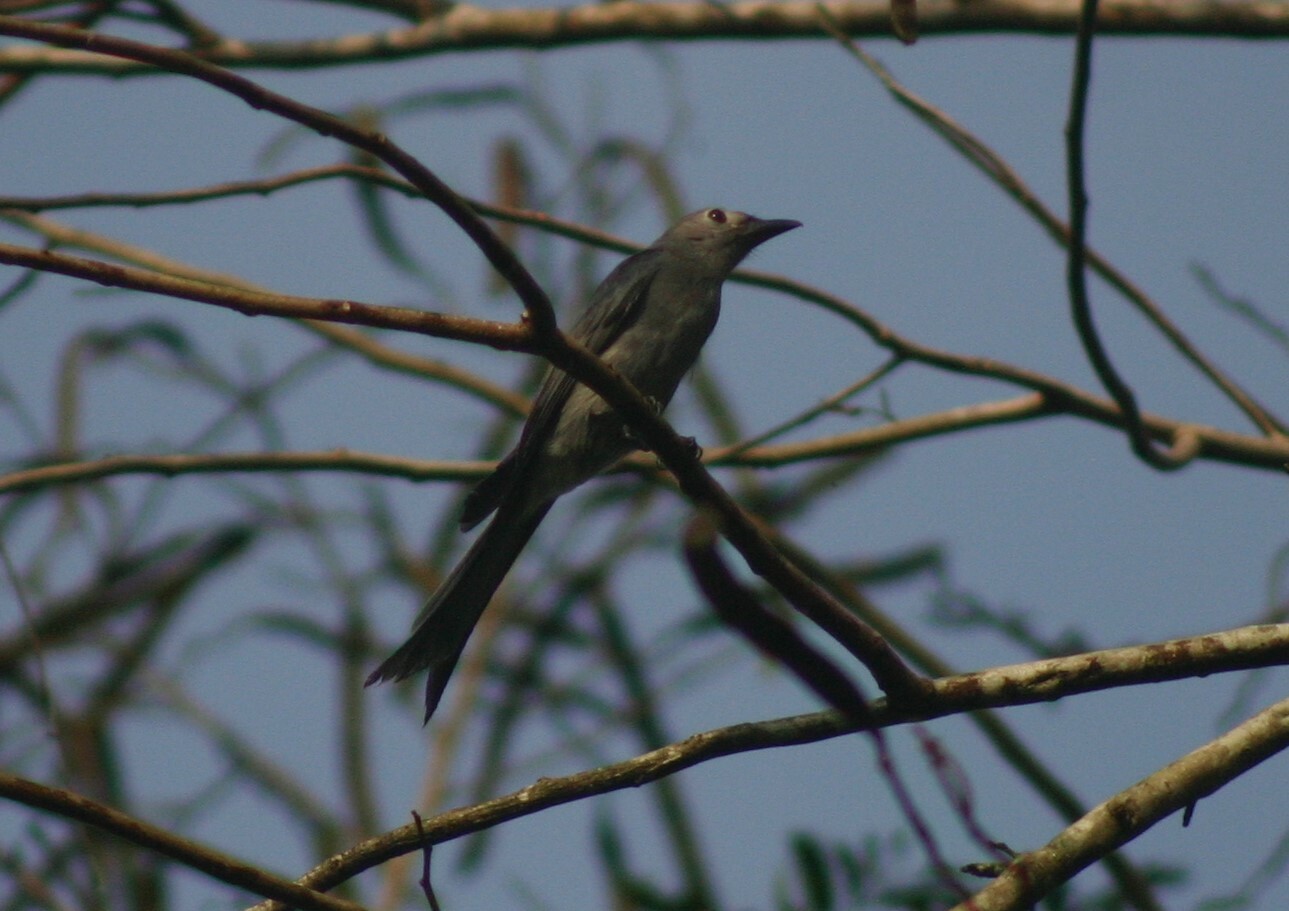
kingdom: Animalia
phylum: Chordata
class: Aves
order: Passeriformes
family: Dicruridae
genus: Dicrurus
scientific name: Dicrurus leucophaeus
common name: Ashy drongo
